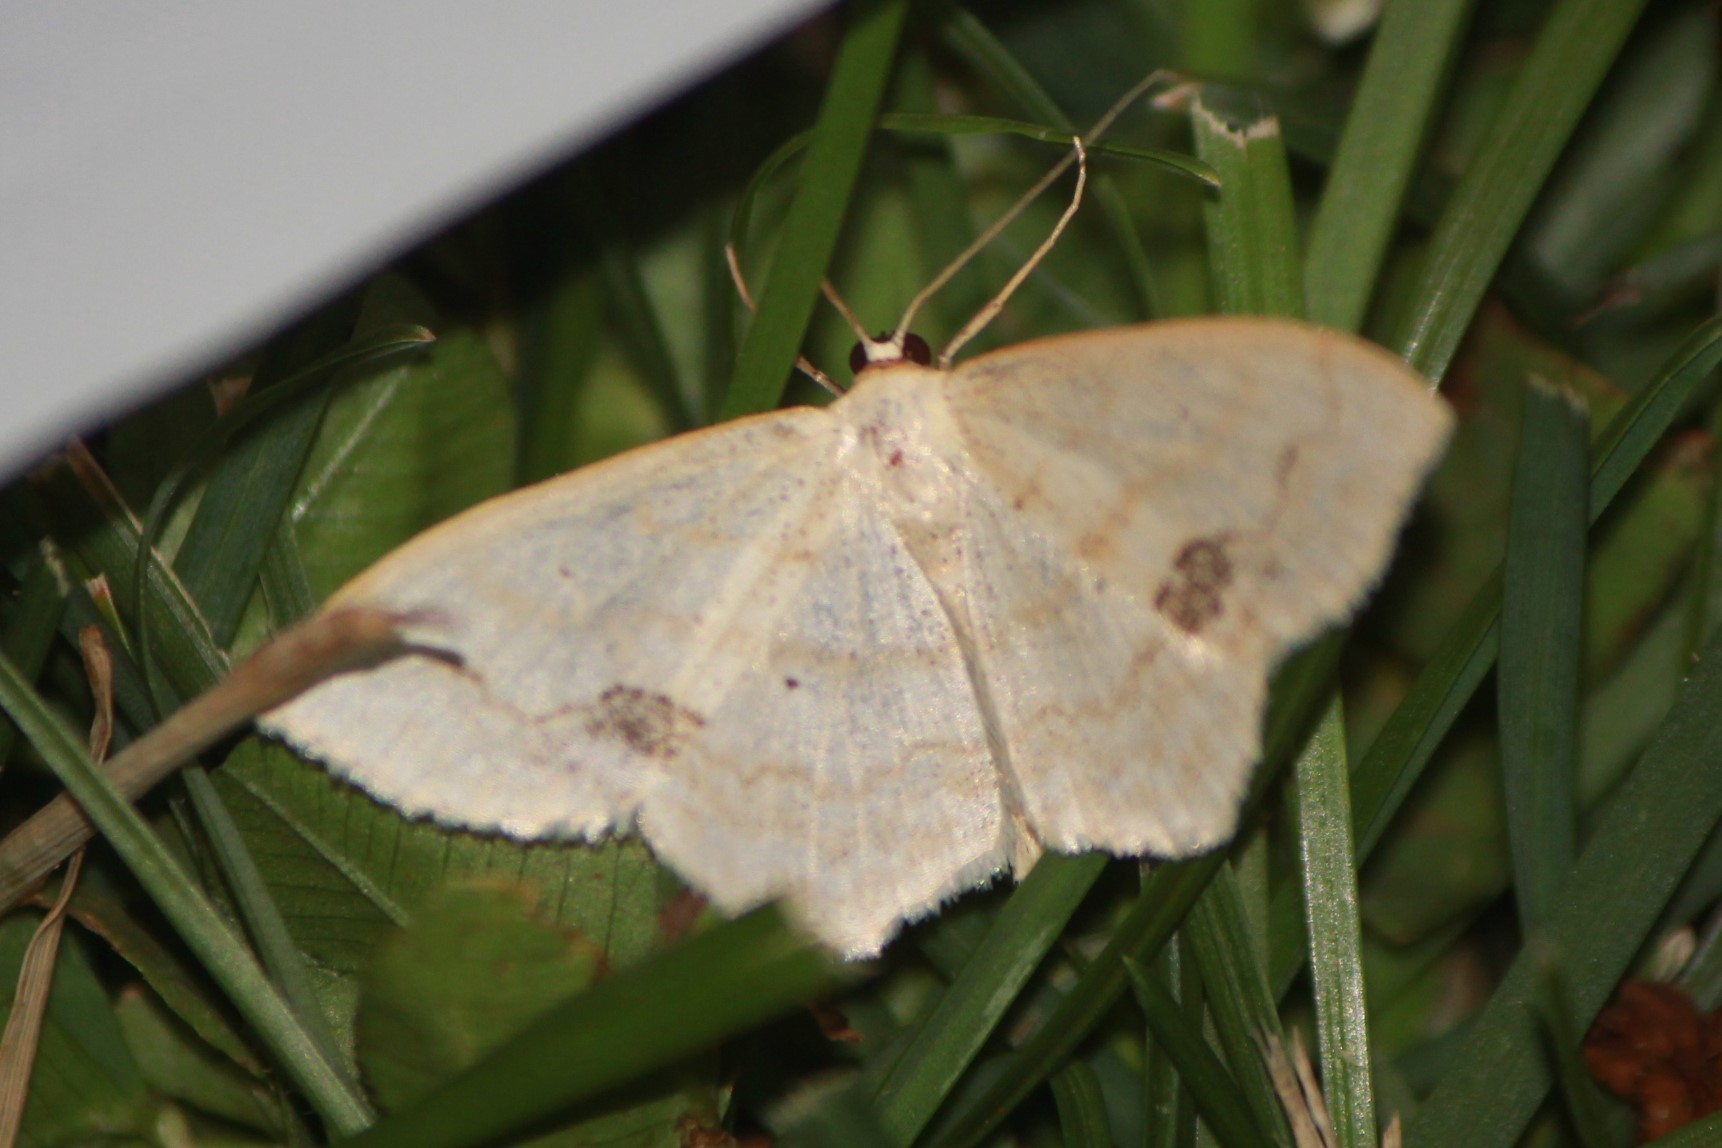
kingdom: Animalia
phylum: Arthropoda
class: Insecta
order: Lepidoptera
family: Geometridae
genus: Scopula
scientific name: Scopula limboundata
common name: Large lace border
